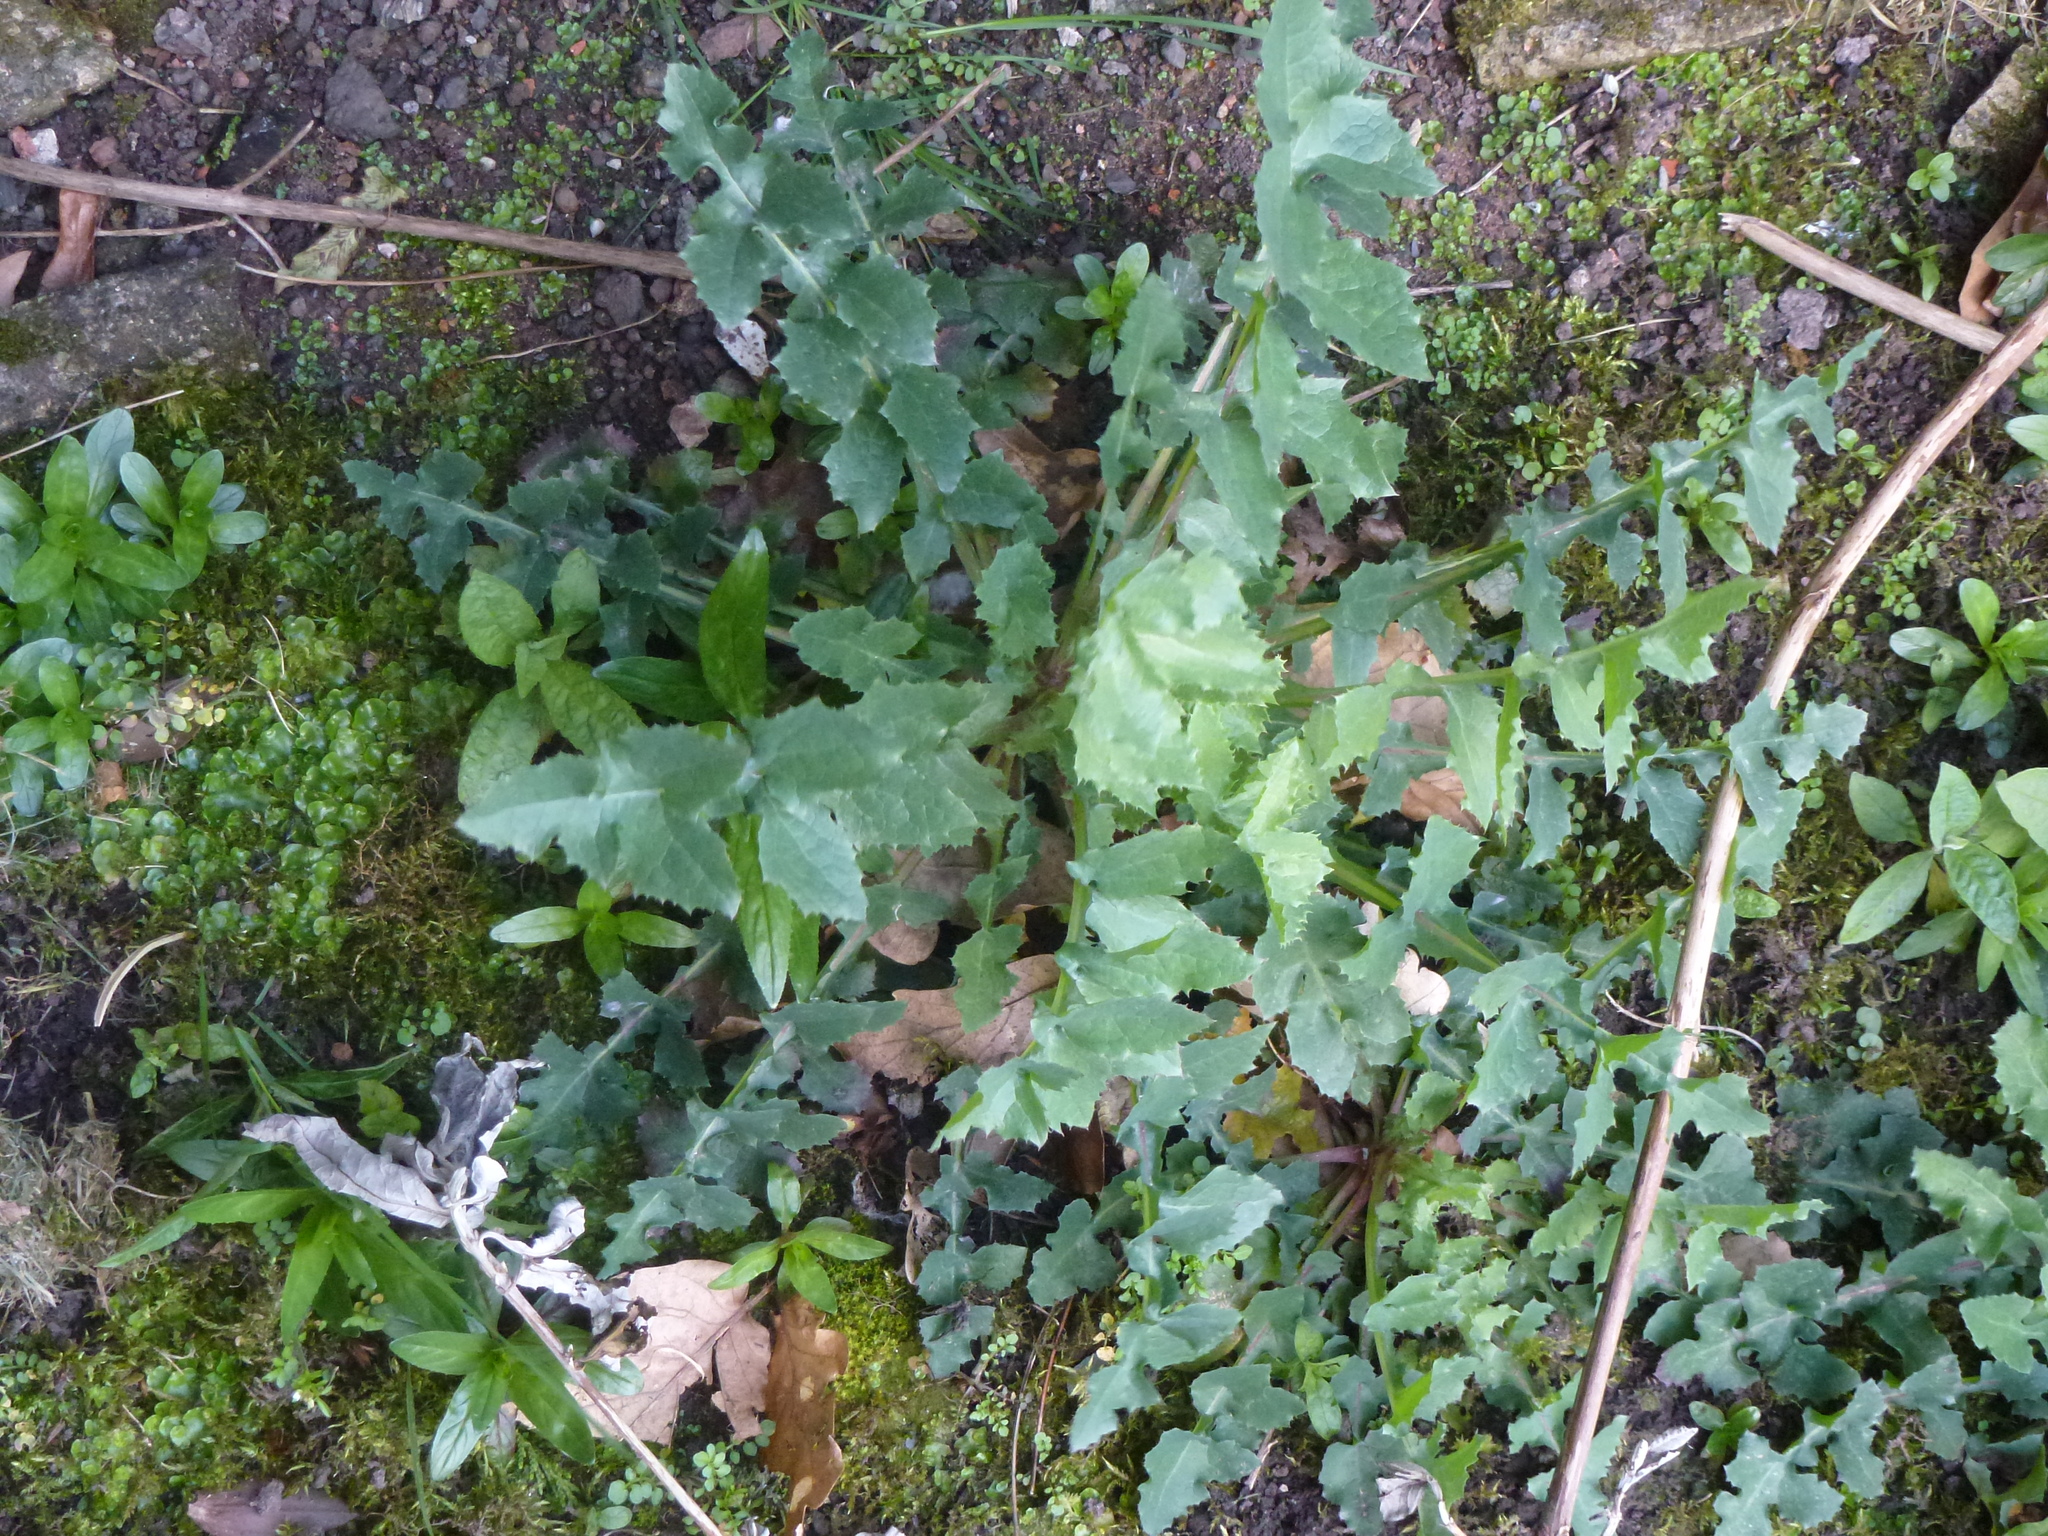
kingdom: Plantae
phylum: Tracheophyta
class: Magnoliopsida
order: Asterales
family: Asteraceae
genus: Sonchus
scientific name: Sonchus oleraceus
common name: Common sowthistle
